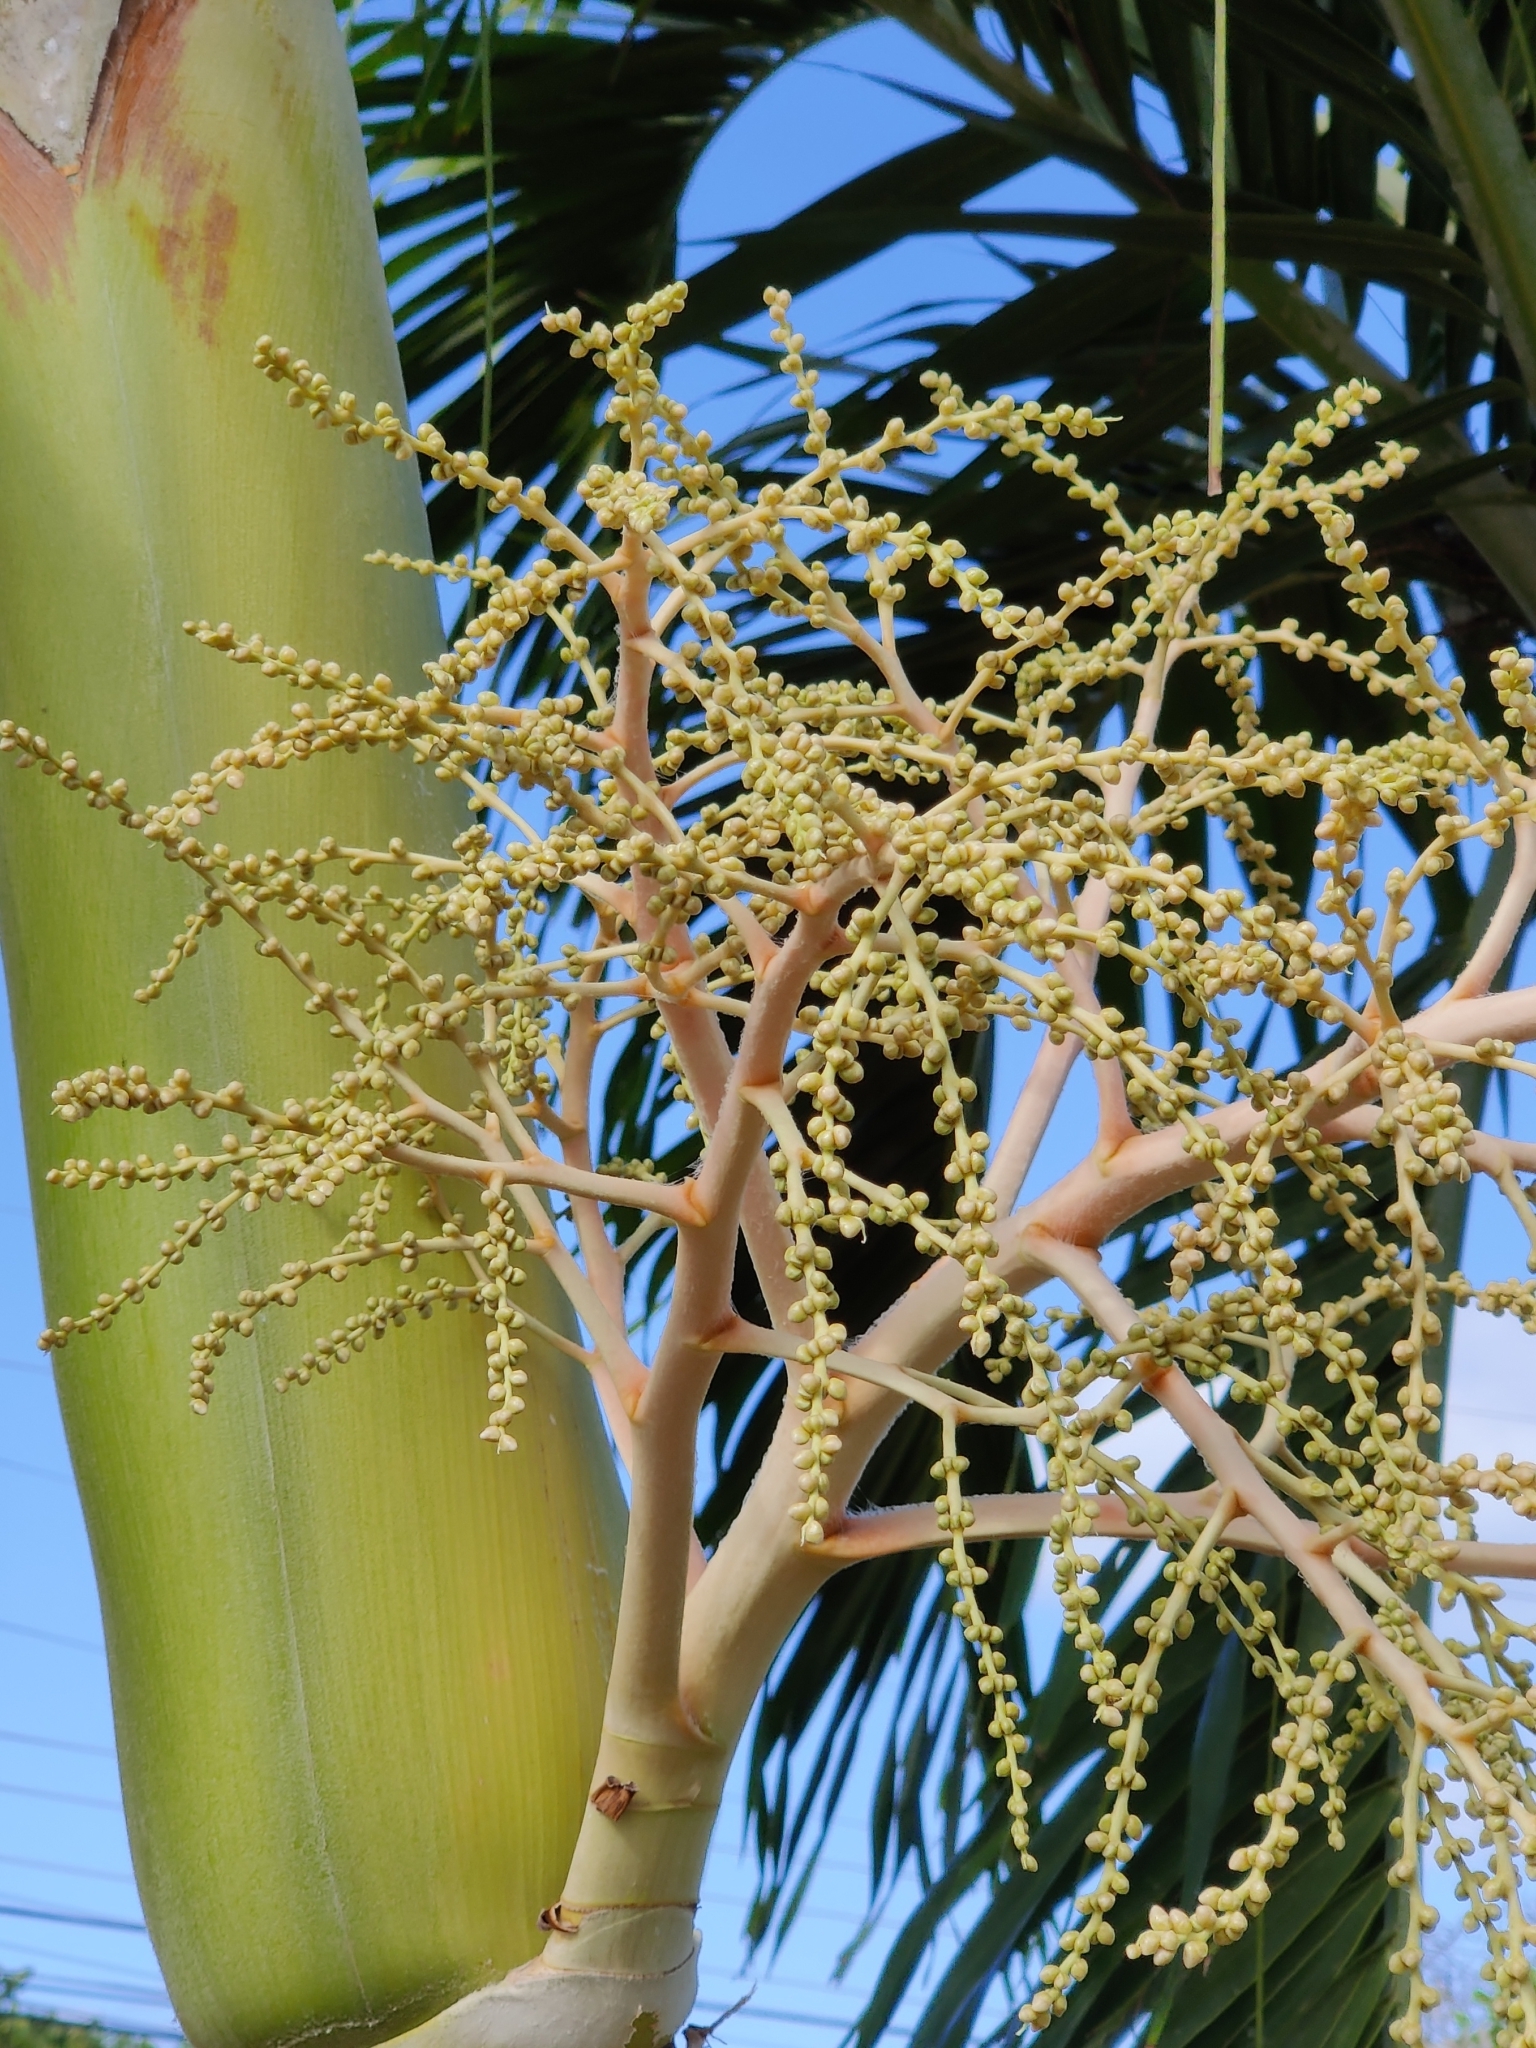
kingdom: Plantae
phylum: Tracheophyta
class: Liliopsida
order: Arecales
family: Arecaceae
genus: Adonidia
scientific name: Adonidia merrillii
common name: Manila palm
